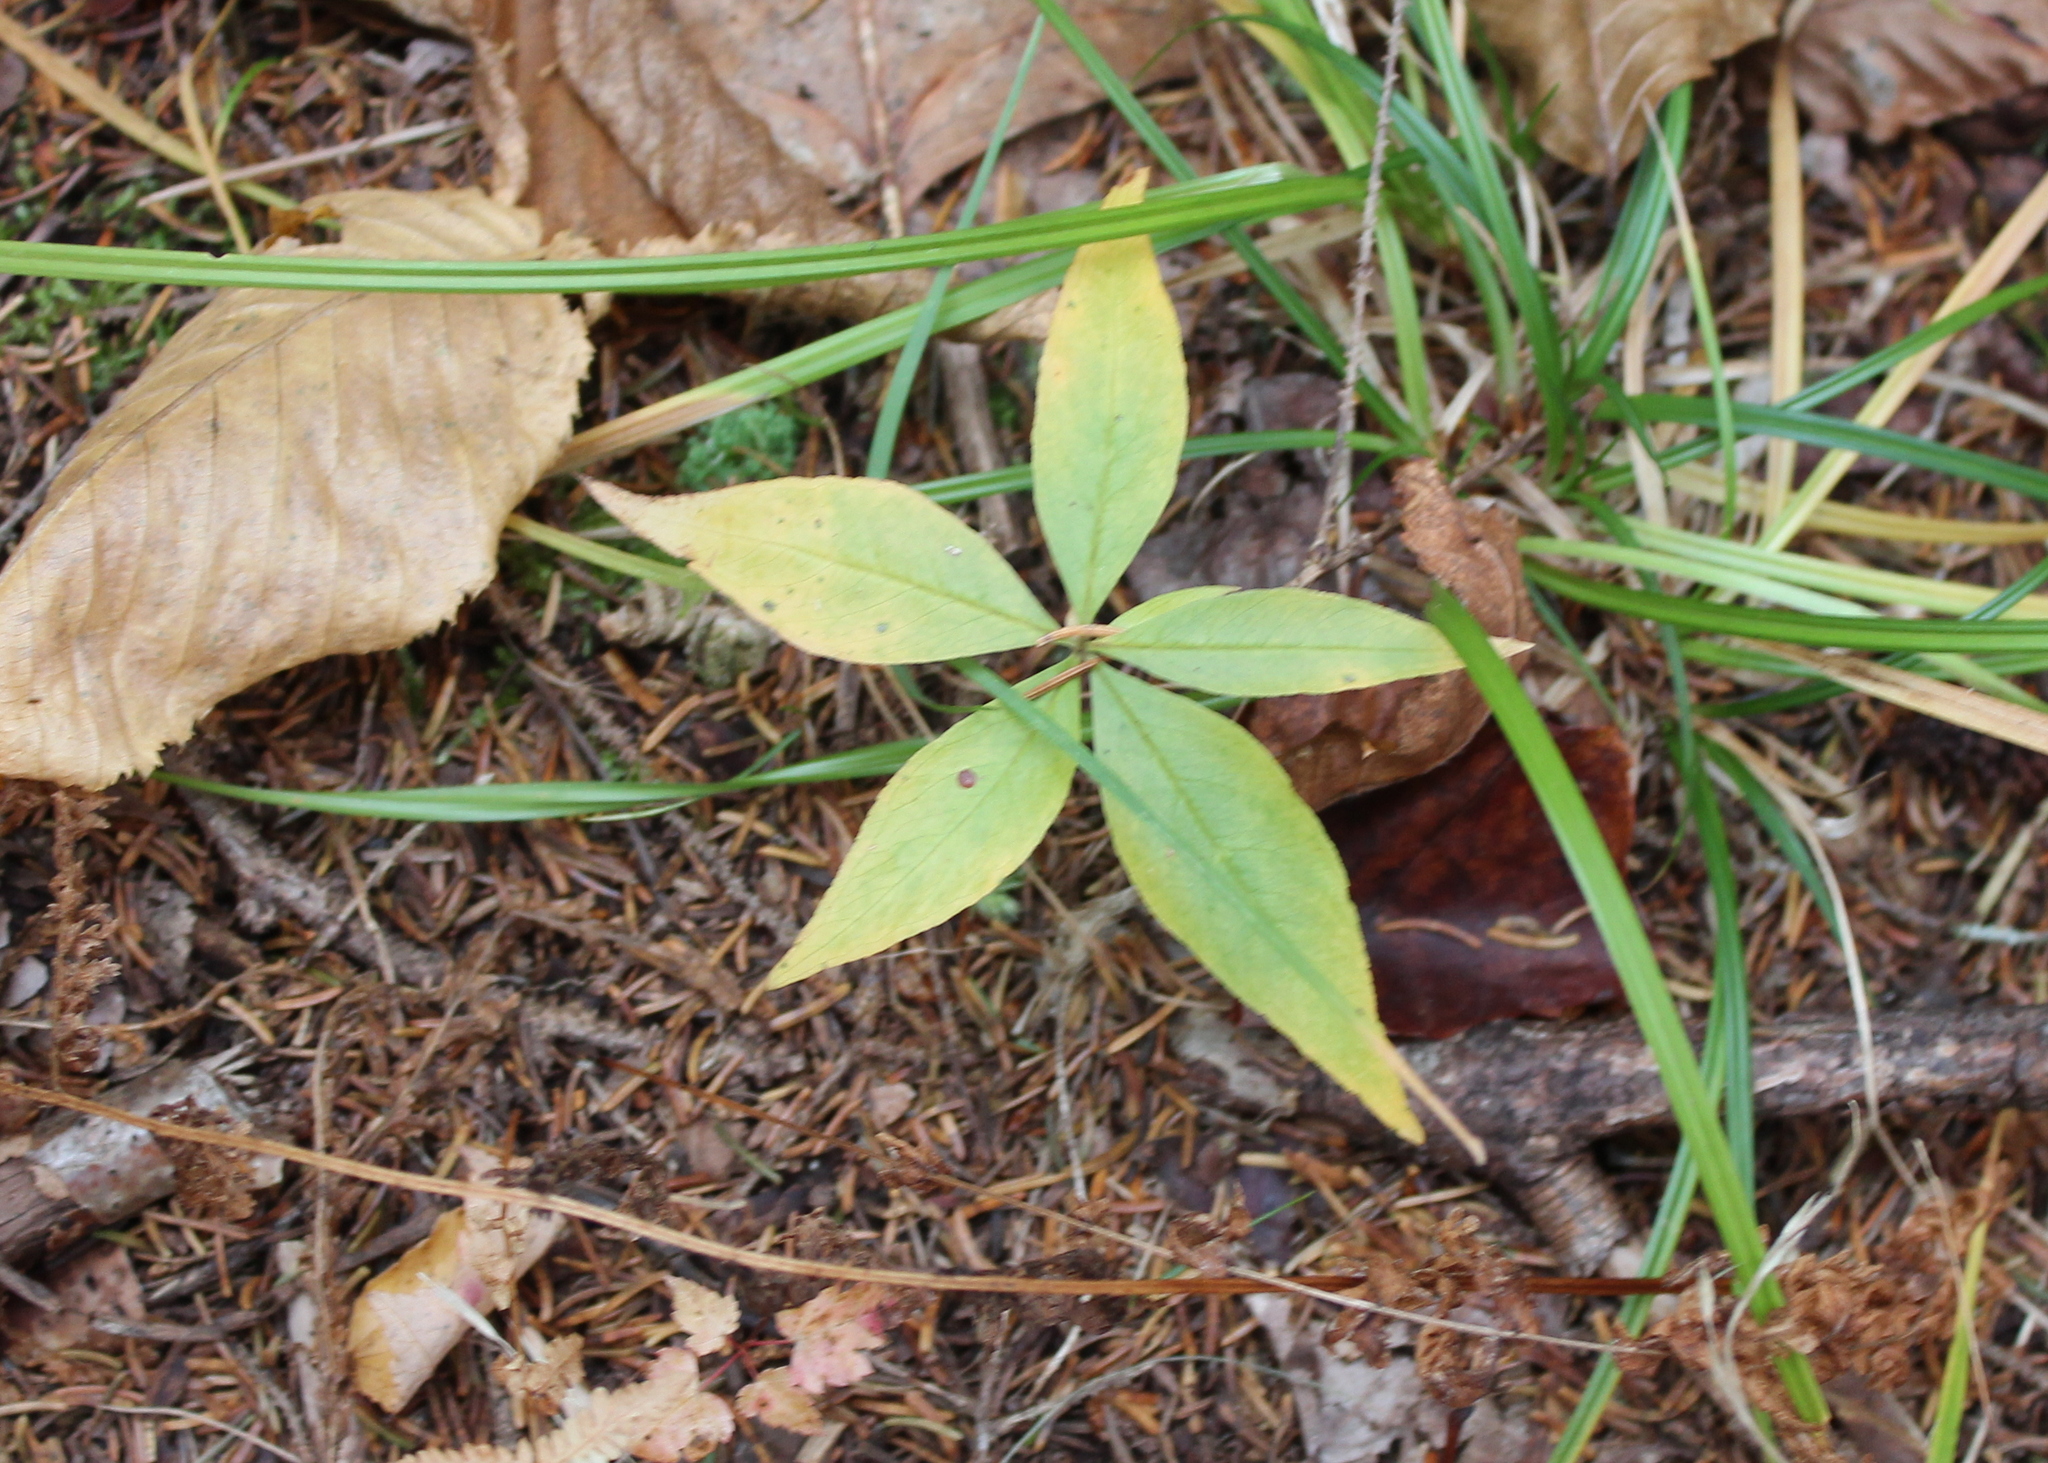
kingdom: Plantae
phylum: Tracheophyta
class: Magnoliopsida
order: Ericales
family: Primulaceae
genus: Lysimachia
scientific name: Lysimachia borealis
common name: American starflower
